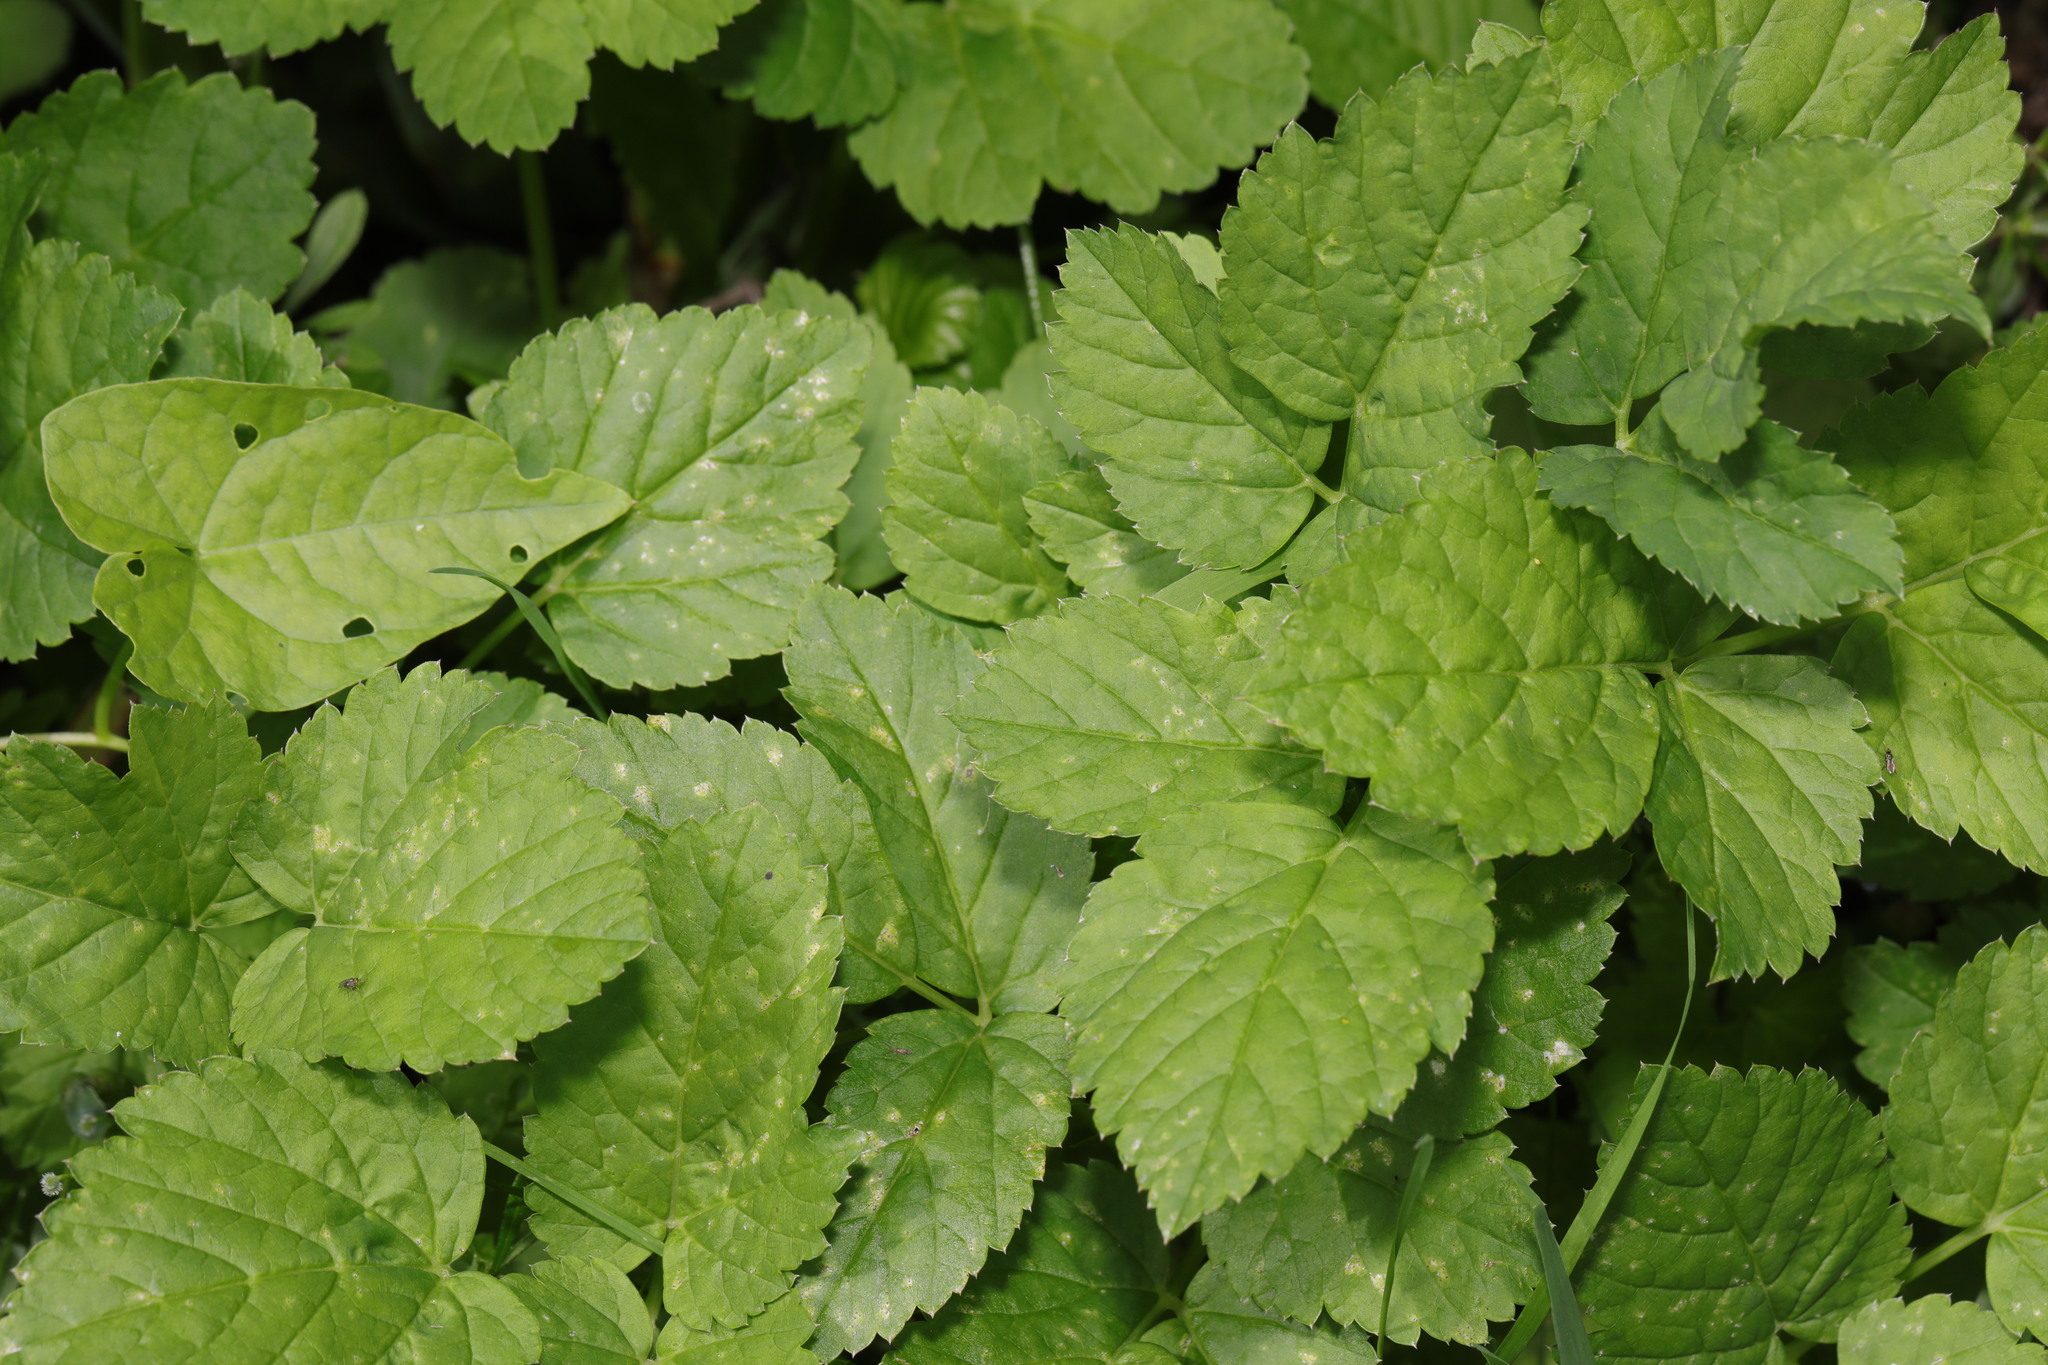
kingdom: Plantae
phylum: Tracheophyta
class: Magnoliopsida
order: Apiales
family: Apiaceae
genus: Aegopodium
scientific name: Aegopodium podagraria
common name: Ground-elder
